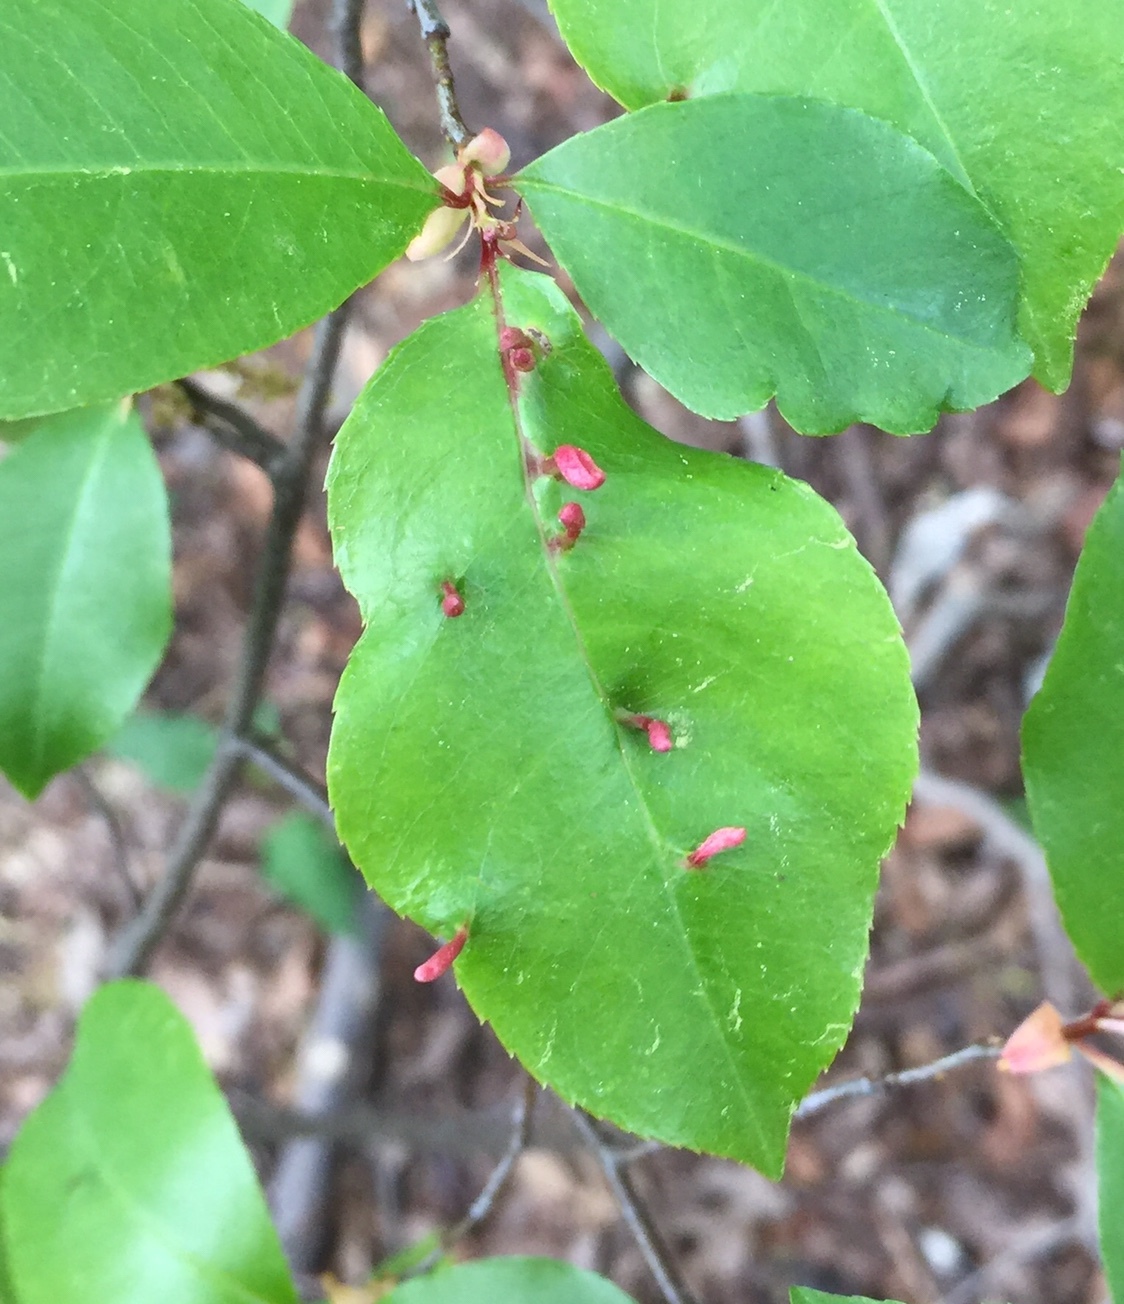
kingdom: Animalia
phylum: Arthropoda
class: Arachnida
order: Trombidiformes
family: Eriophyidae
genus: Eriophyes
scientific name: Eriophyes
